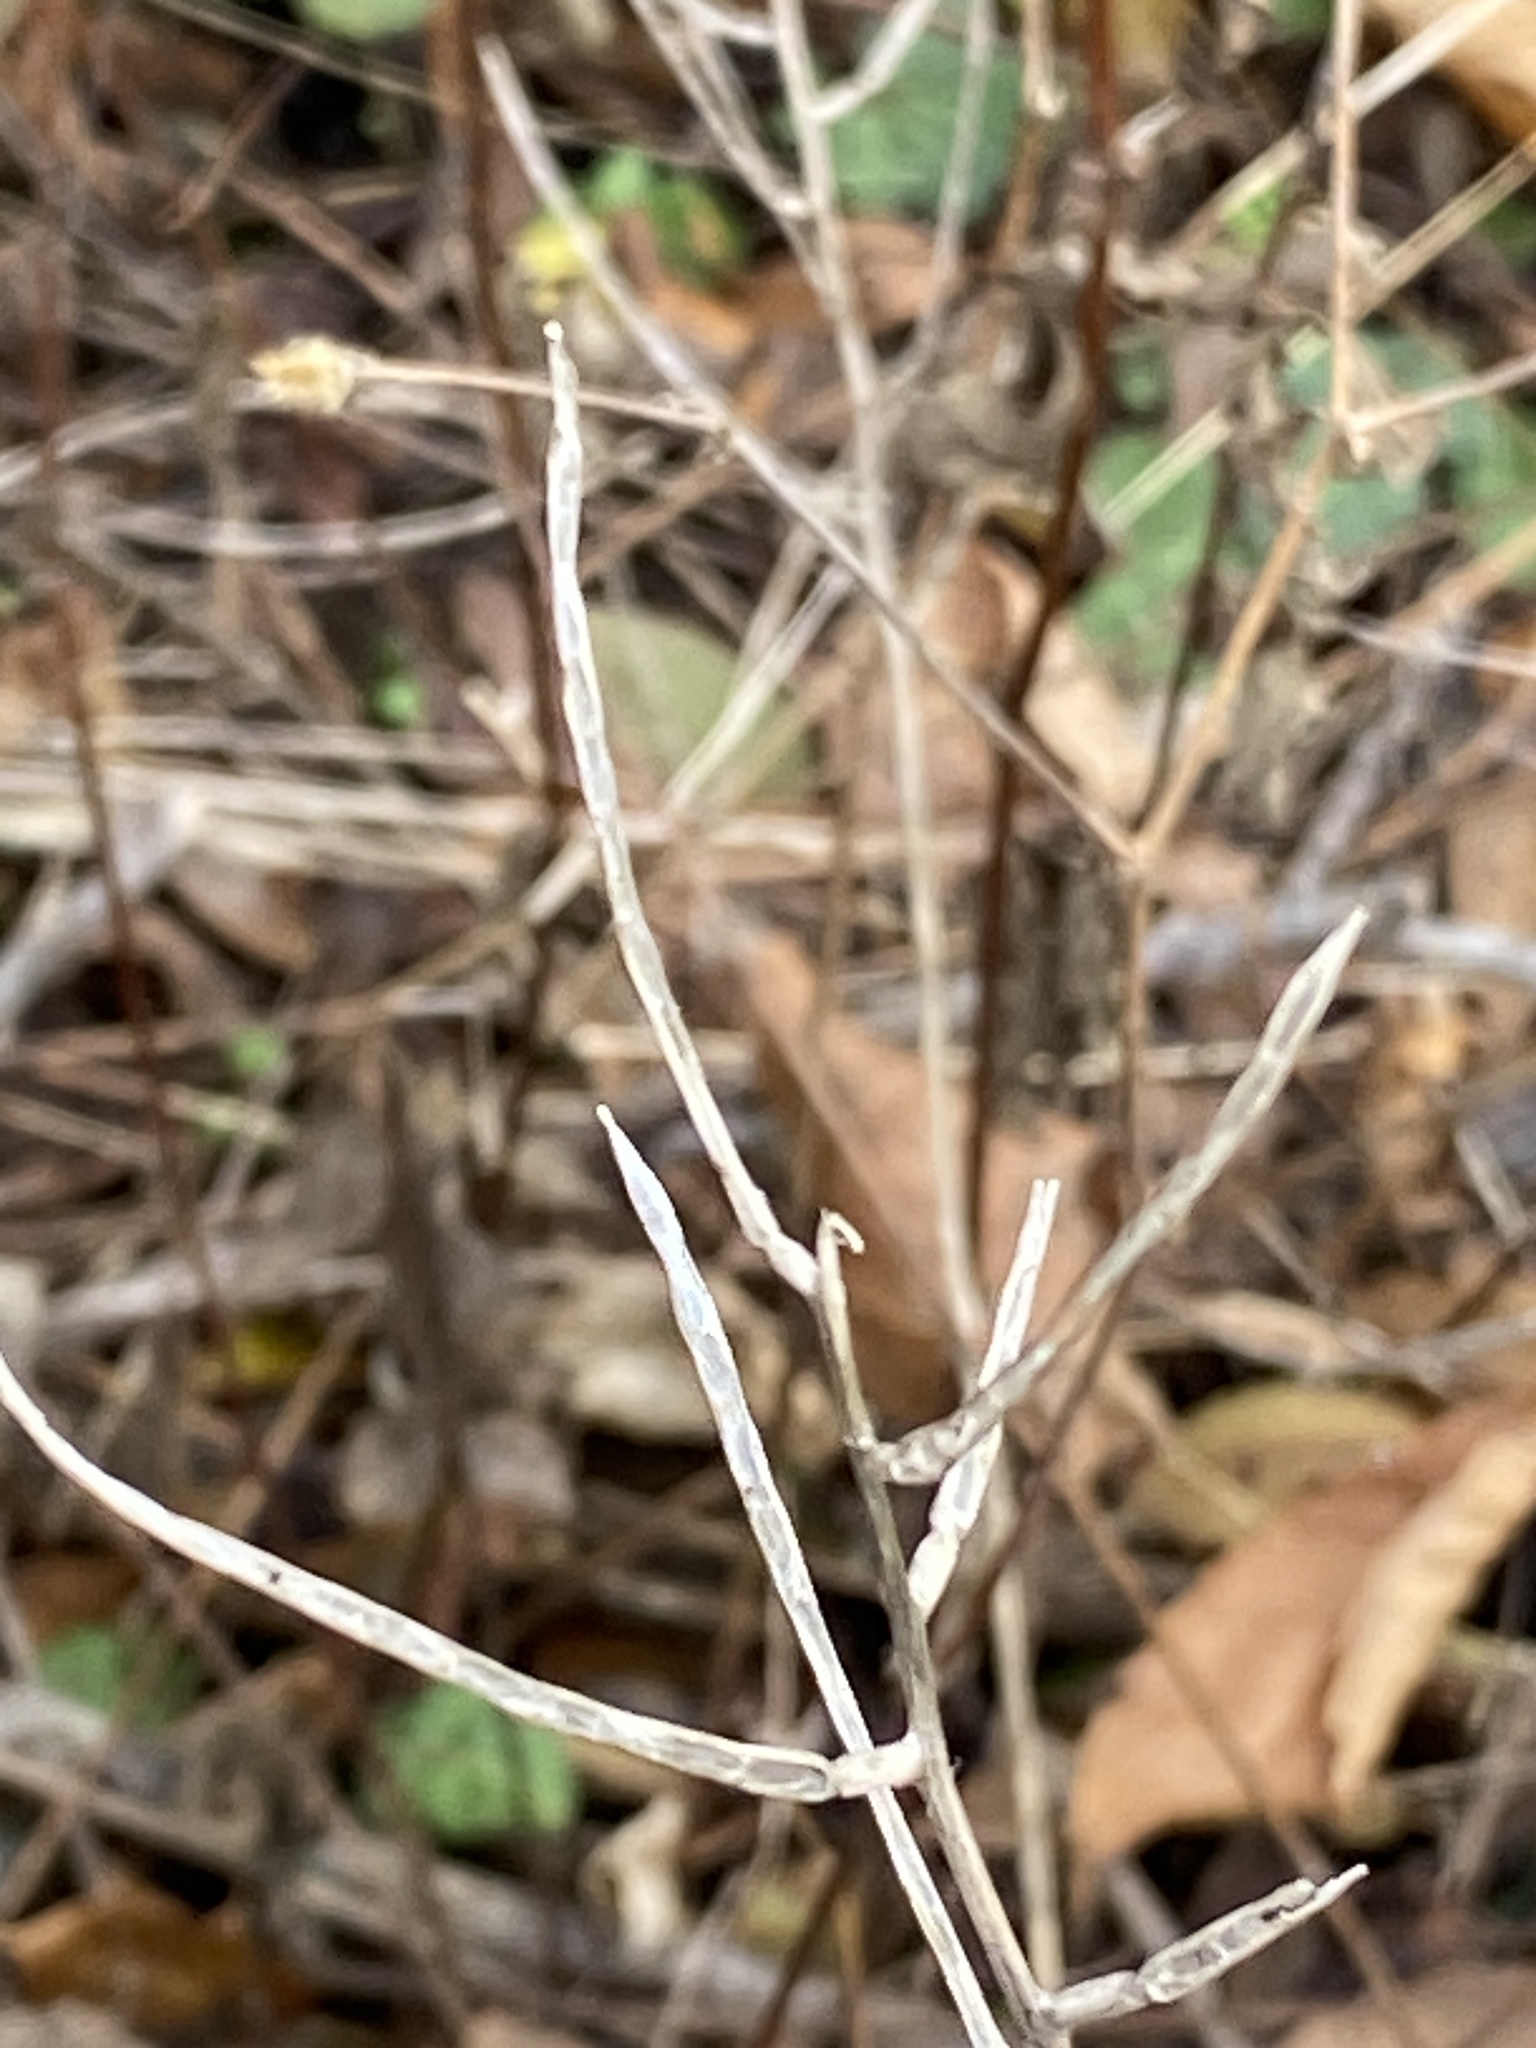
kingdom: Plantae
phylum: Tracheophyta
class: Magnoliopsida
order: Brassicales
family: Brassicaceae
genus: Alliaria
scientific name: Alliaria petiolata
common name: Garlic mustard
